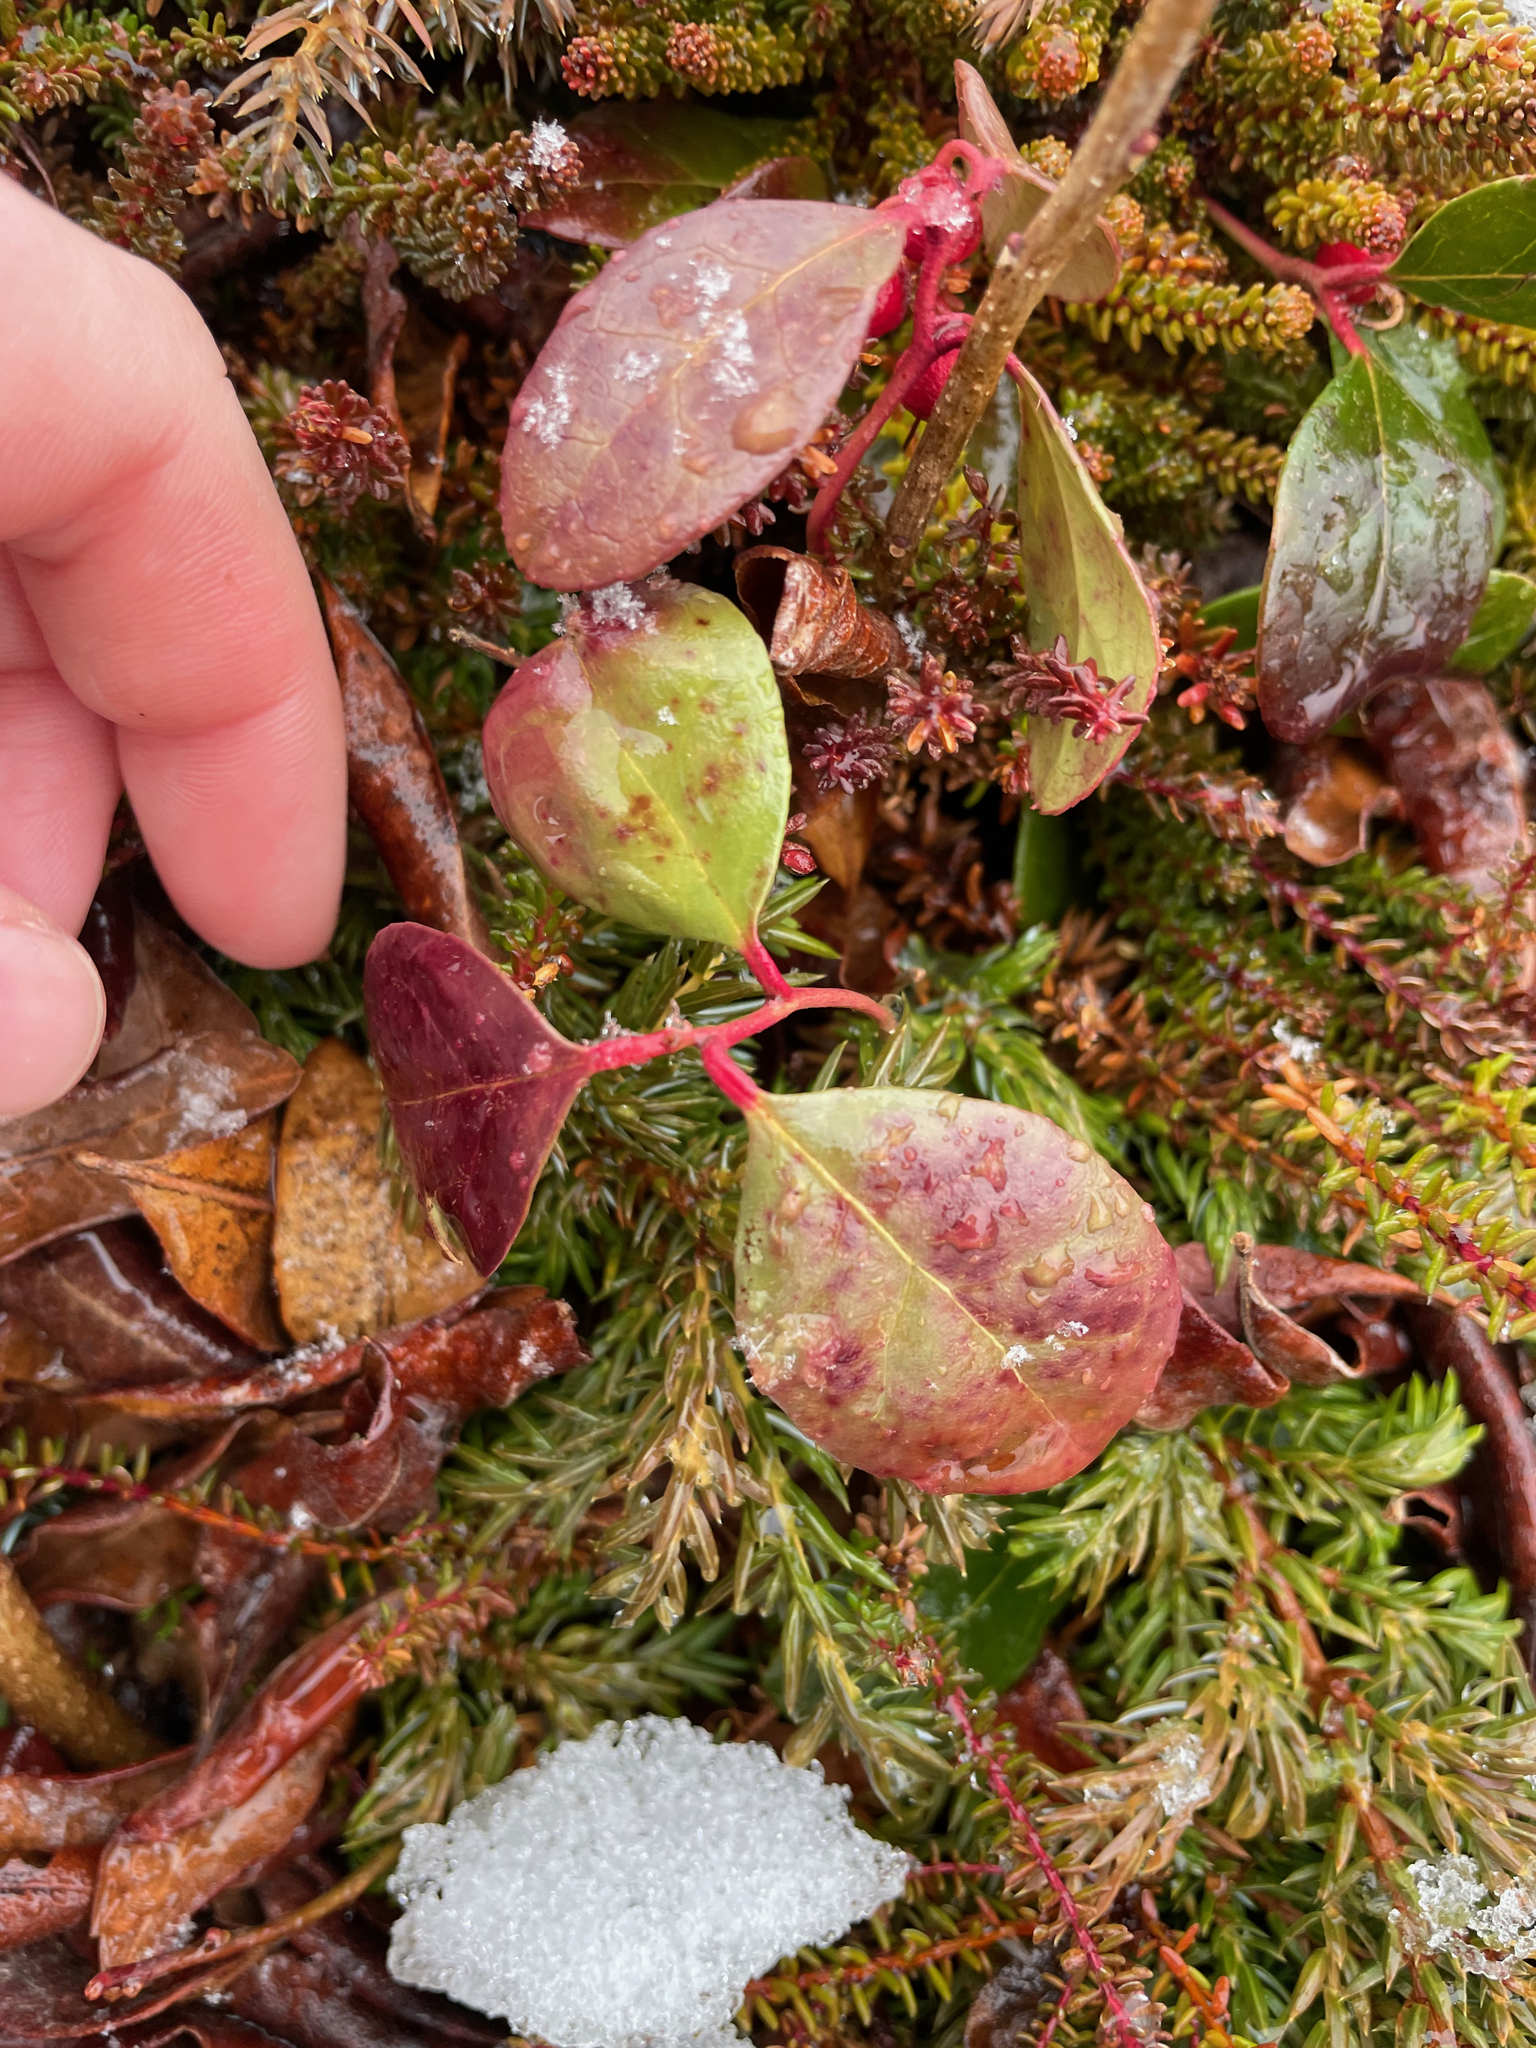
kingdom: Plantae
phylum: Tracheophyta
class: Magnoliopsida
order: Ericales
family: Ericaceae
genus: Gaultheria
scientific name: Gaultheria procumbens
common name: Checkerberry
